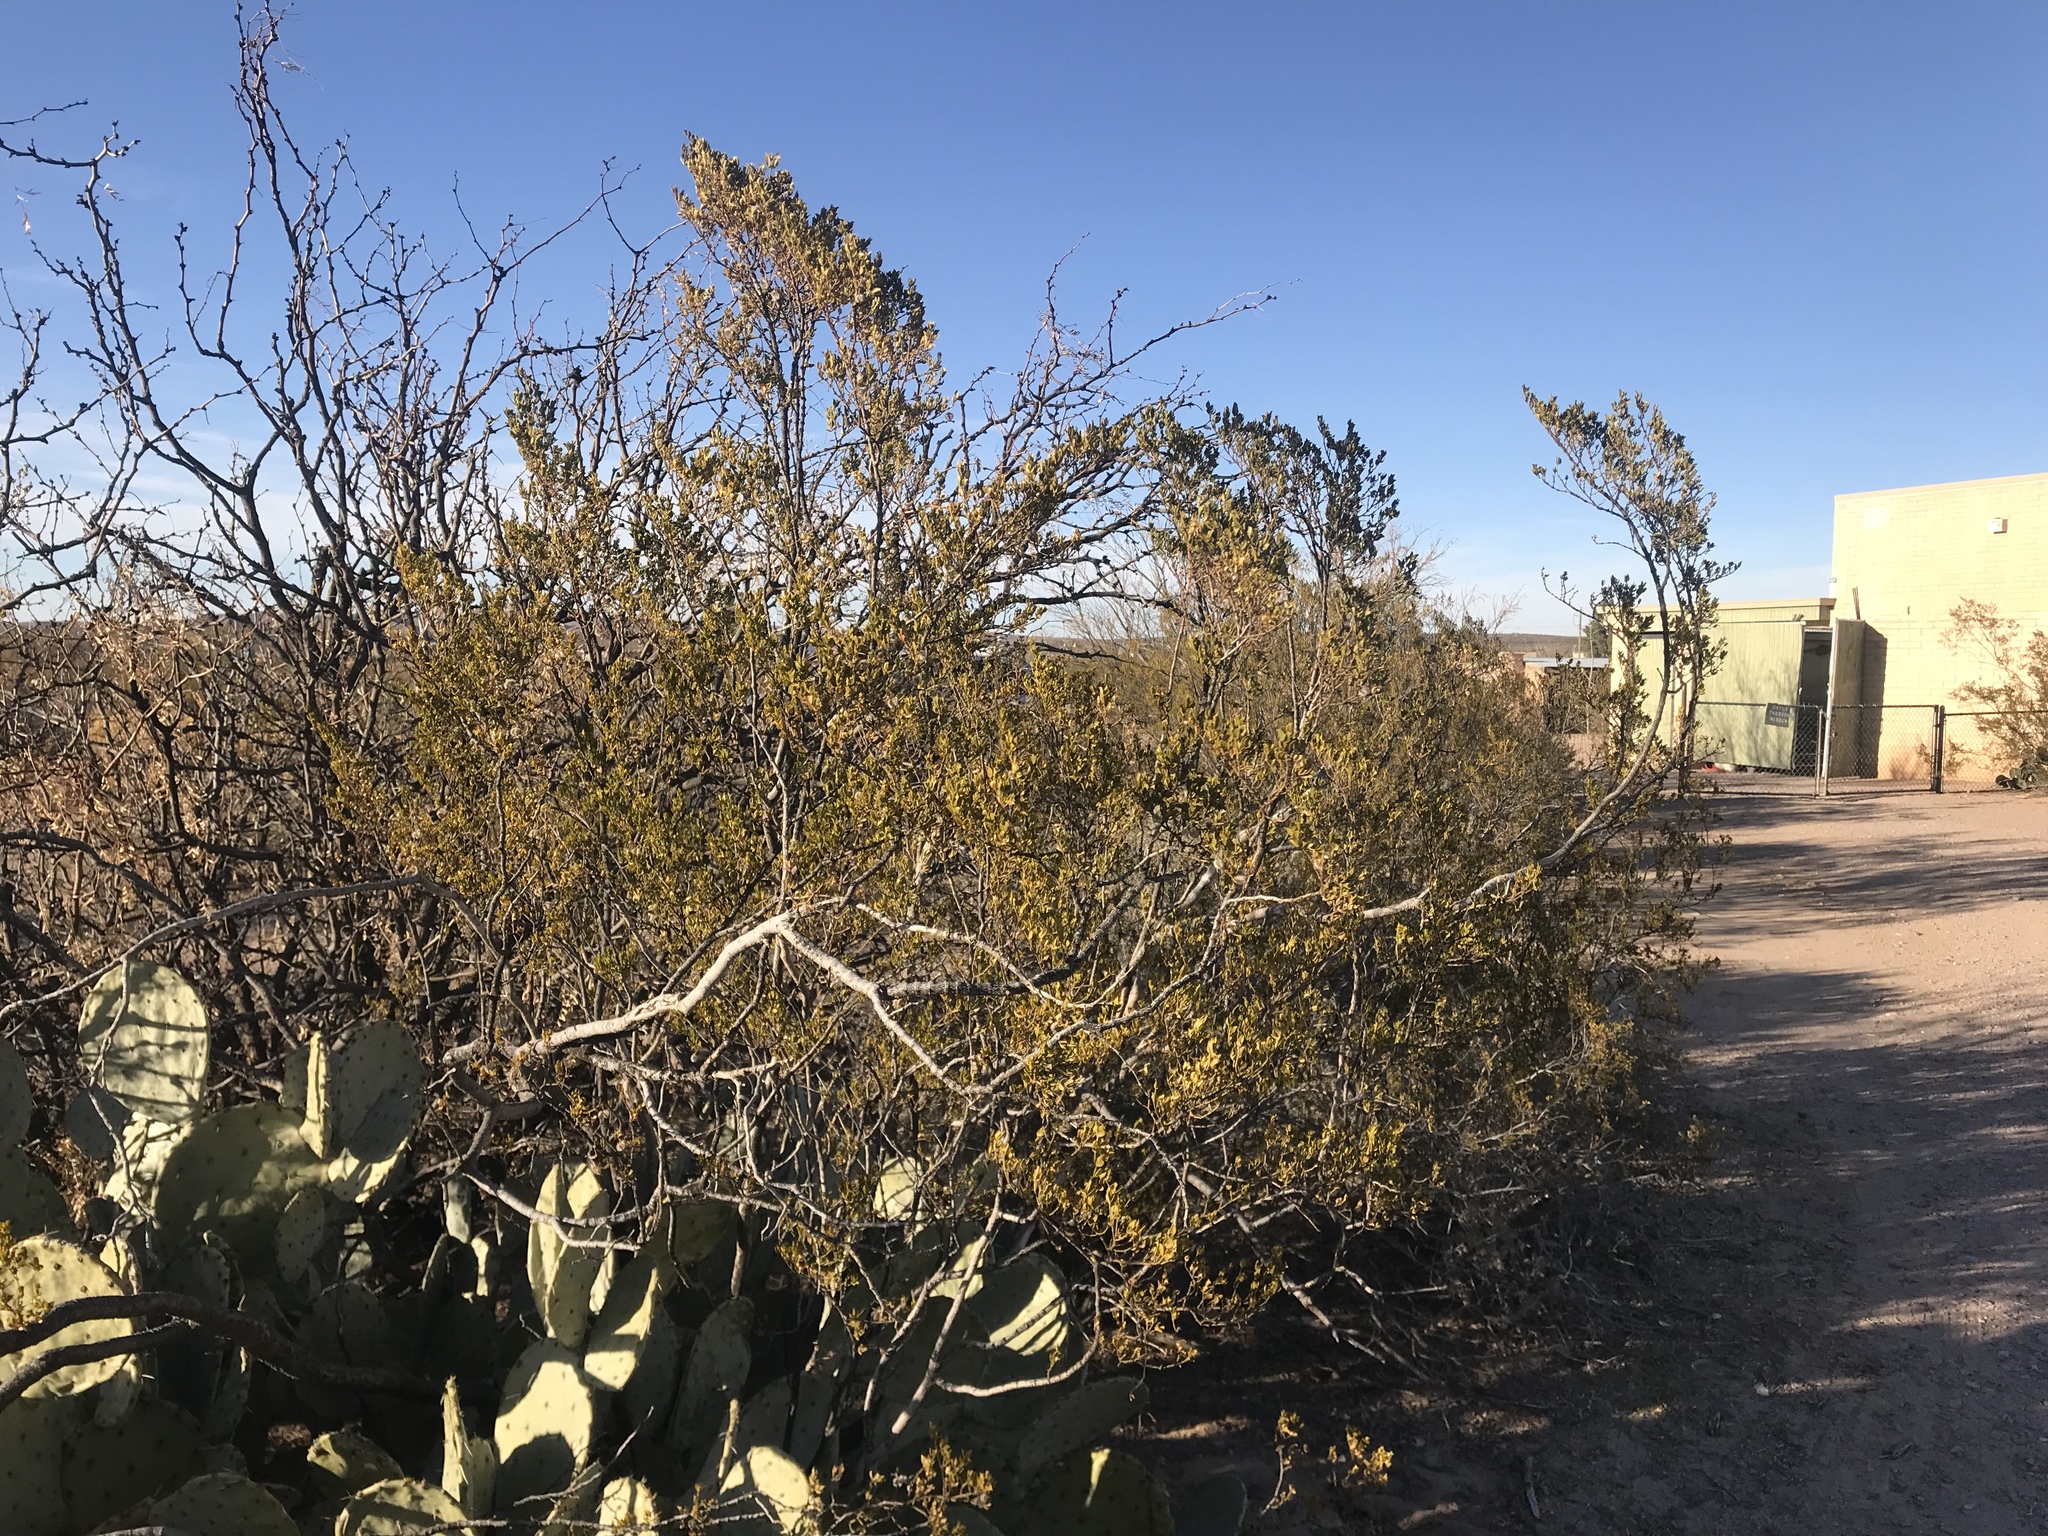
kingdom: Plantae
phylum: Tracheophyta
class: Magnoliopsida
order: Zygophyllales
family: Zygophyllaceae
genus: Larrea
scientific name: Larrea tridentata
